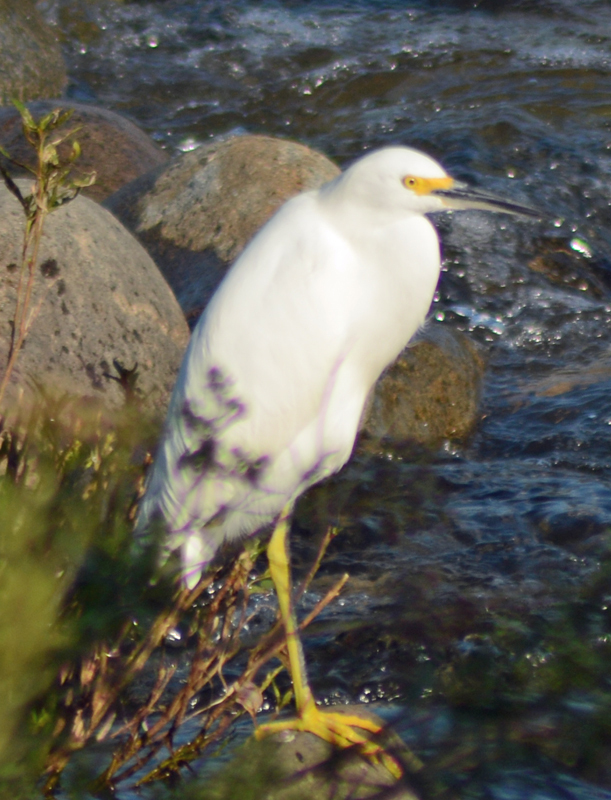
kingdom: Animalia
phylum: Chordata
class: Aves
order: Pelecaniformes
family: Ardeidae
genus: Egretta
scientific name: Egretta thula
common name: Snowy egret
